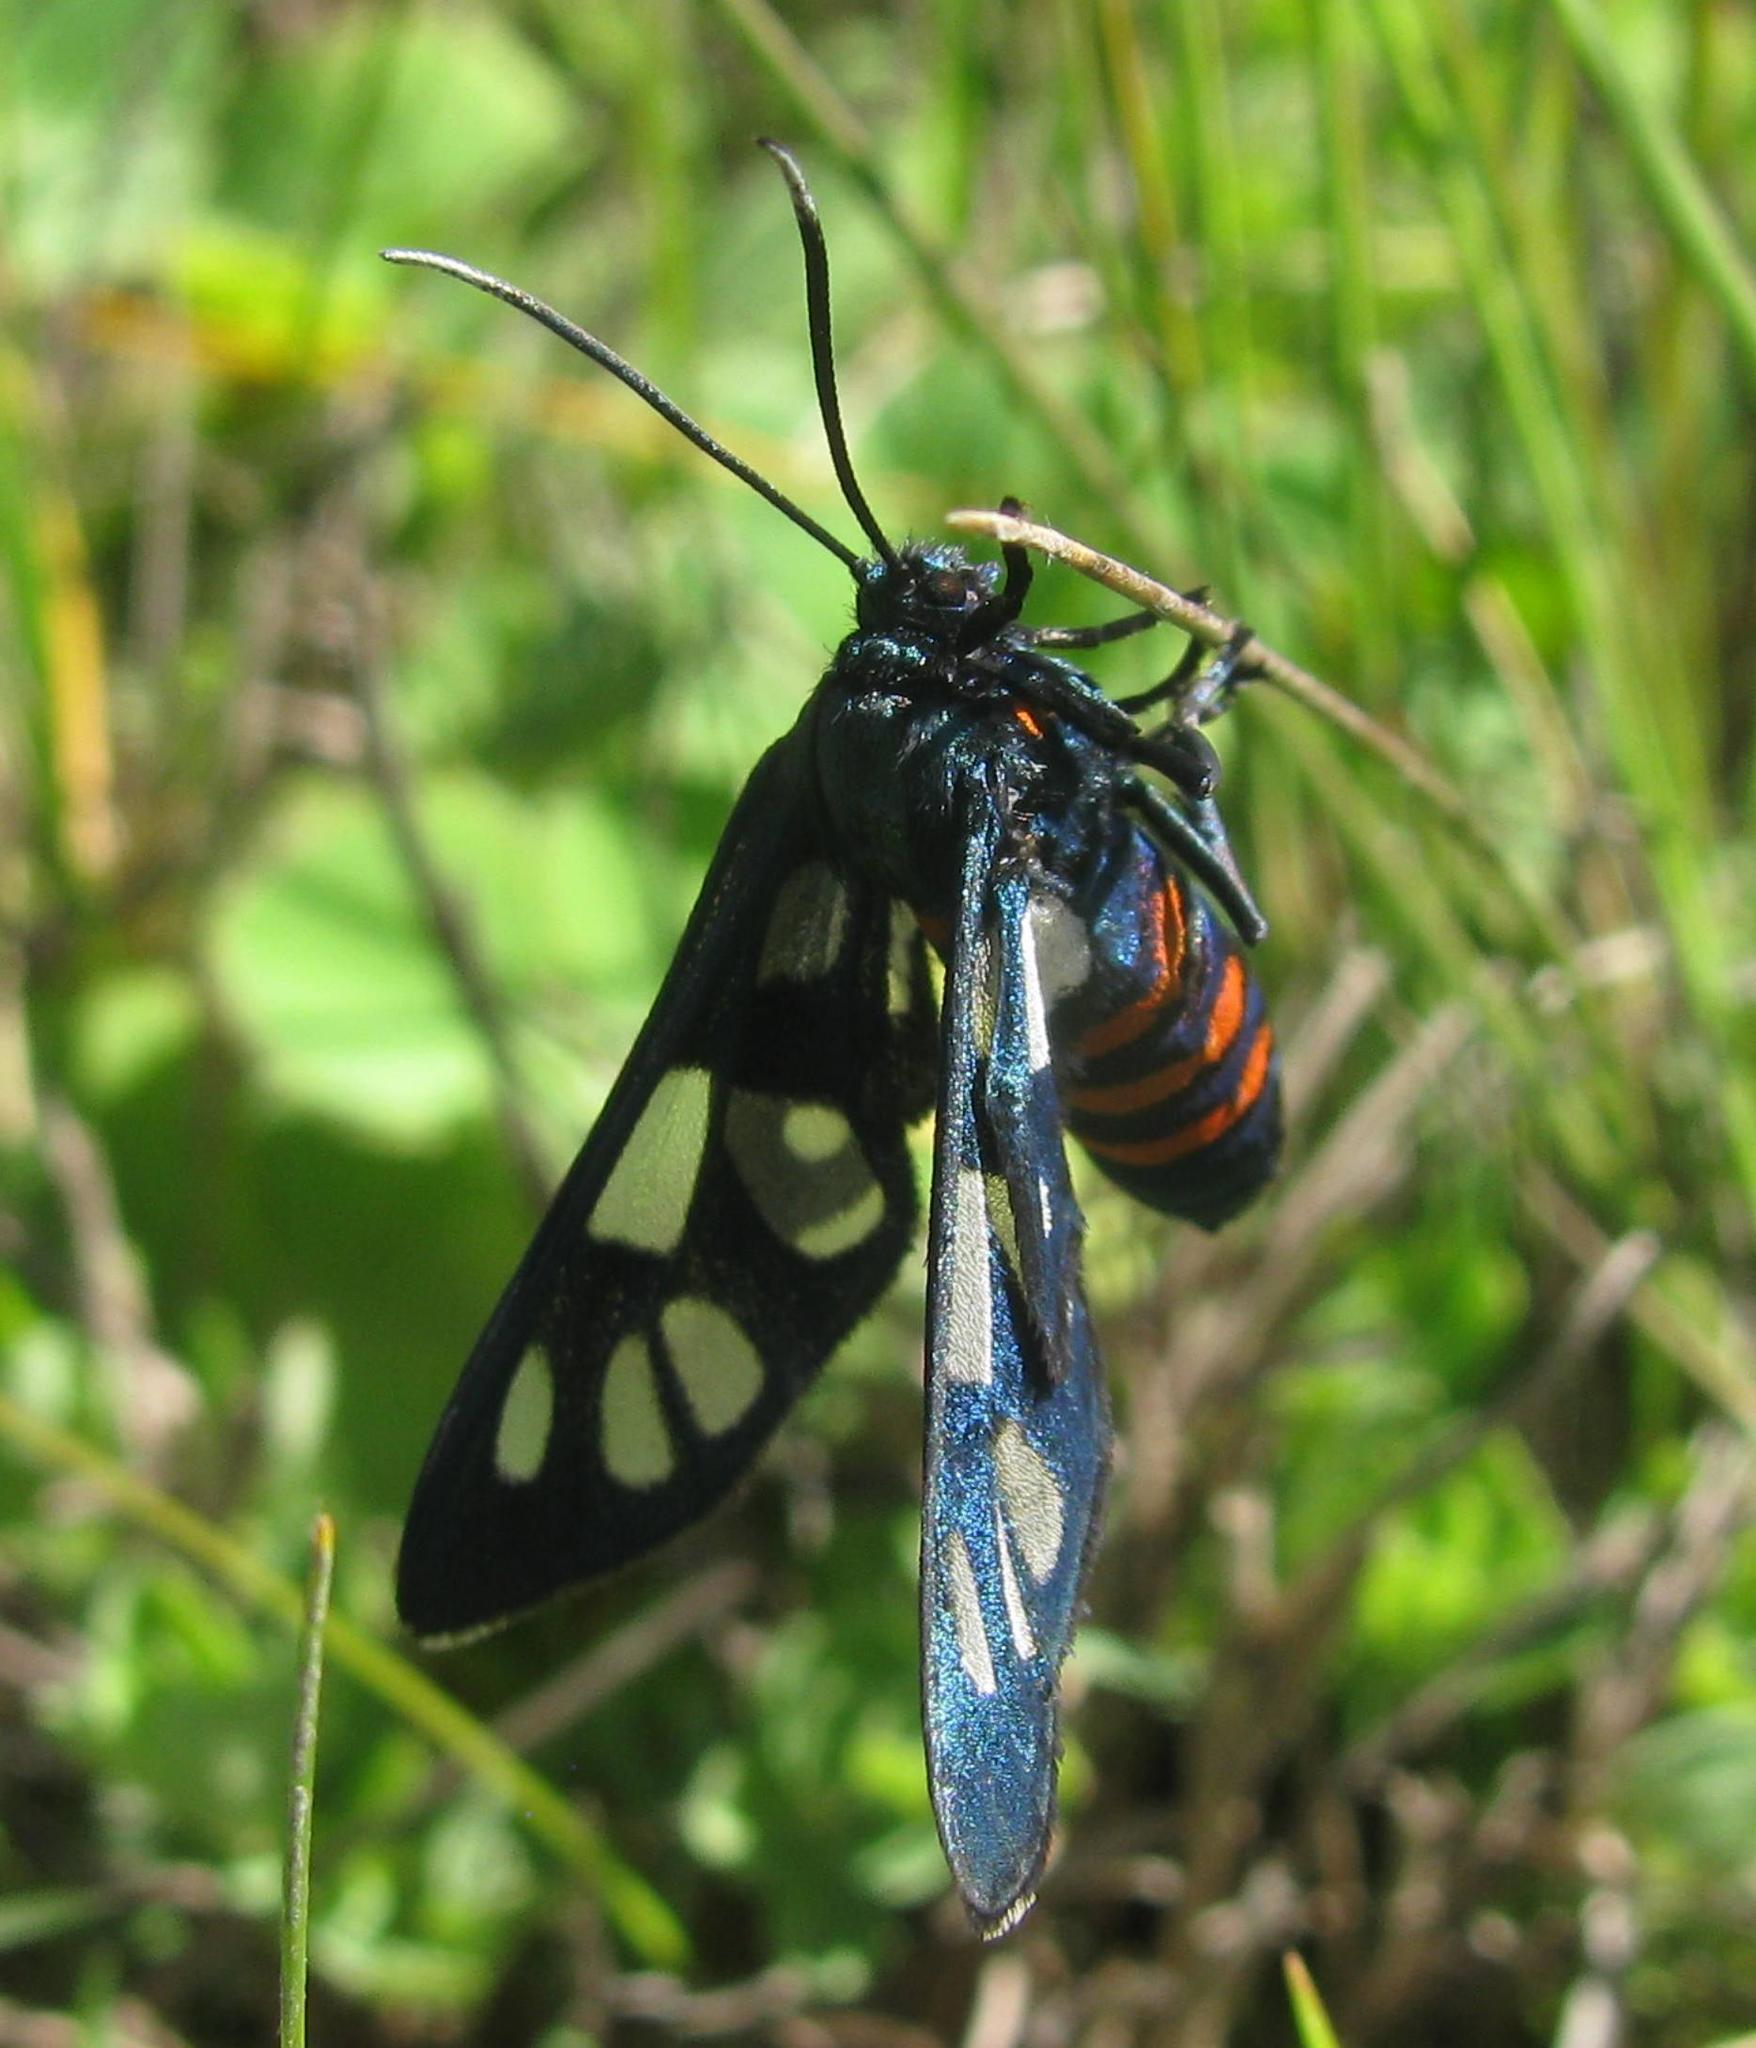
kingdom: Animalia
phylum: Arthropoda
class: Insecta
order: Lepidoptera
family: Erebidae
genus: Amata
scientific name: Amata cerbera
